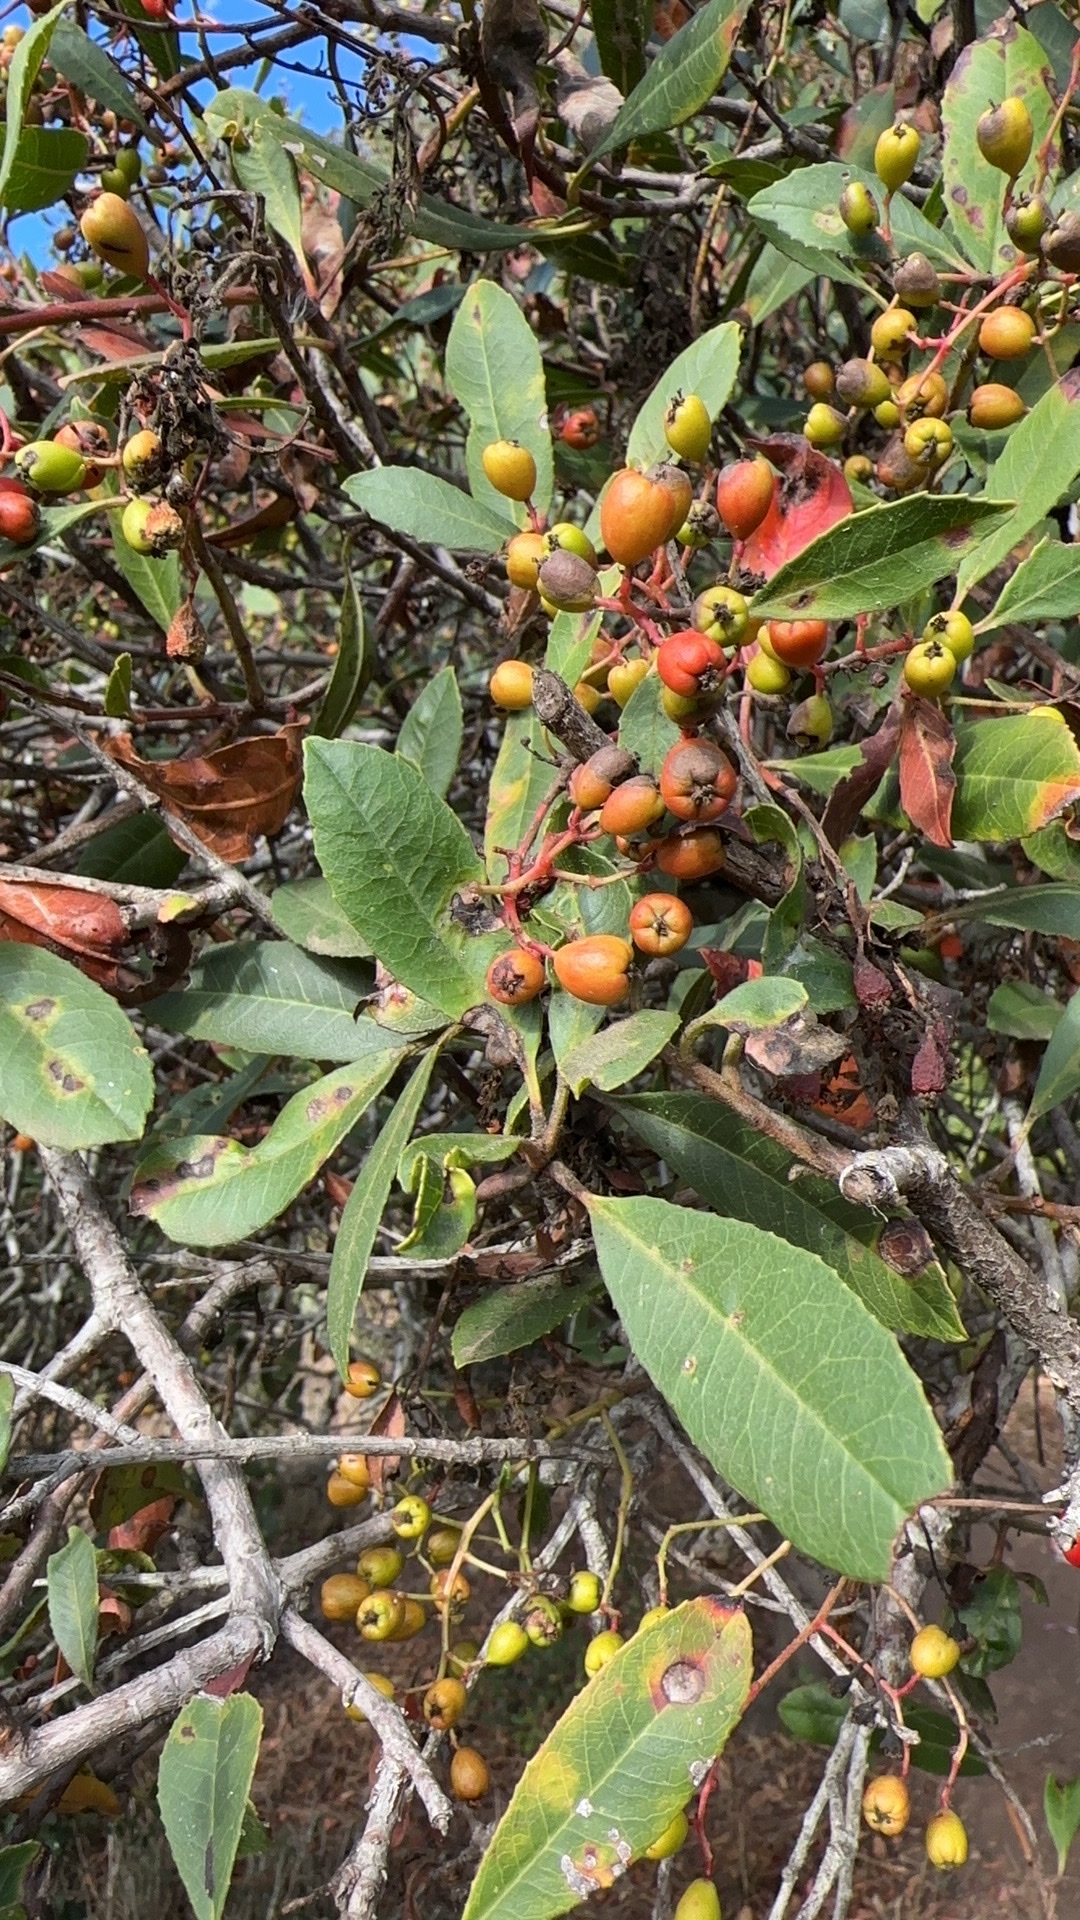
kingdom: Plantae
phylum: Tracheophyta
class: Magnoliopsida
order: Rosales
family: Rosaceae
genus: Heteromeles
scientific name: Heteromeles arbutifolia
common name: California-holly
